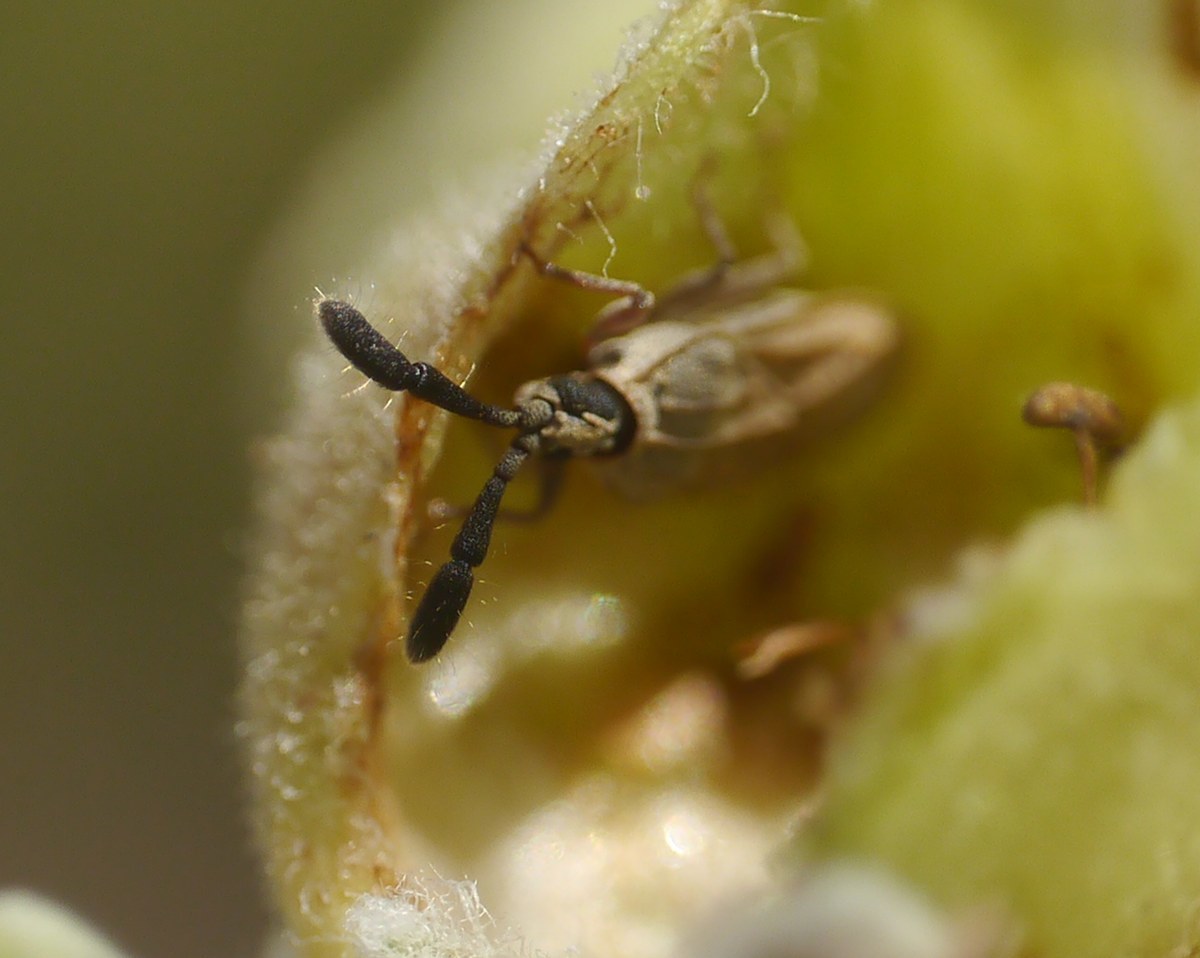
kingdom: Animalia
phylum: Arthropoda
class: Insecta
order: Hemiptera
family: Tingidae
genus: Copium
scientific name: Copium teucrii
